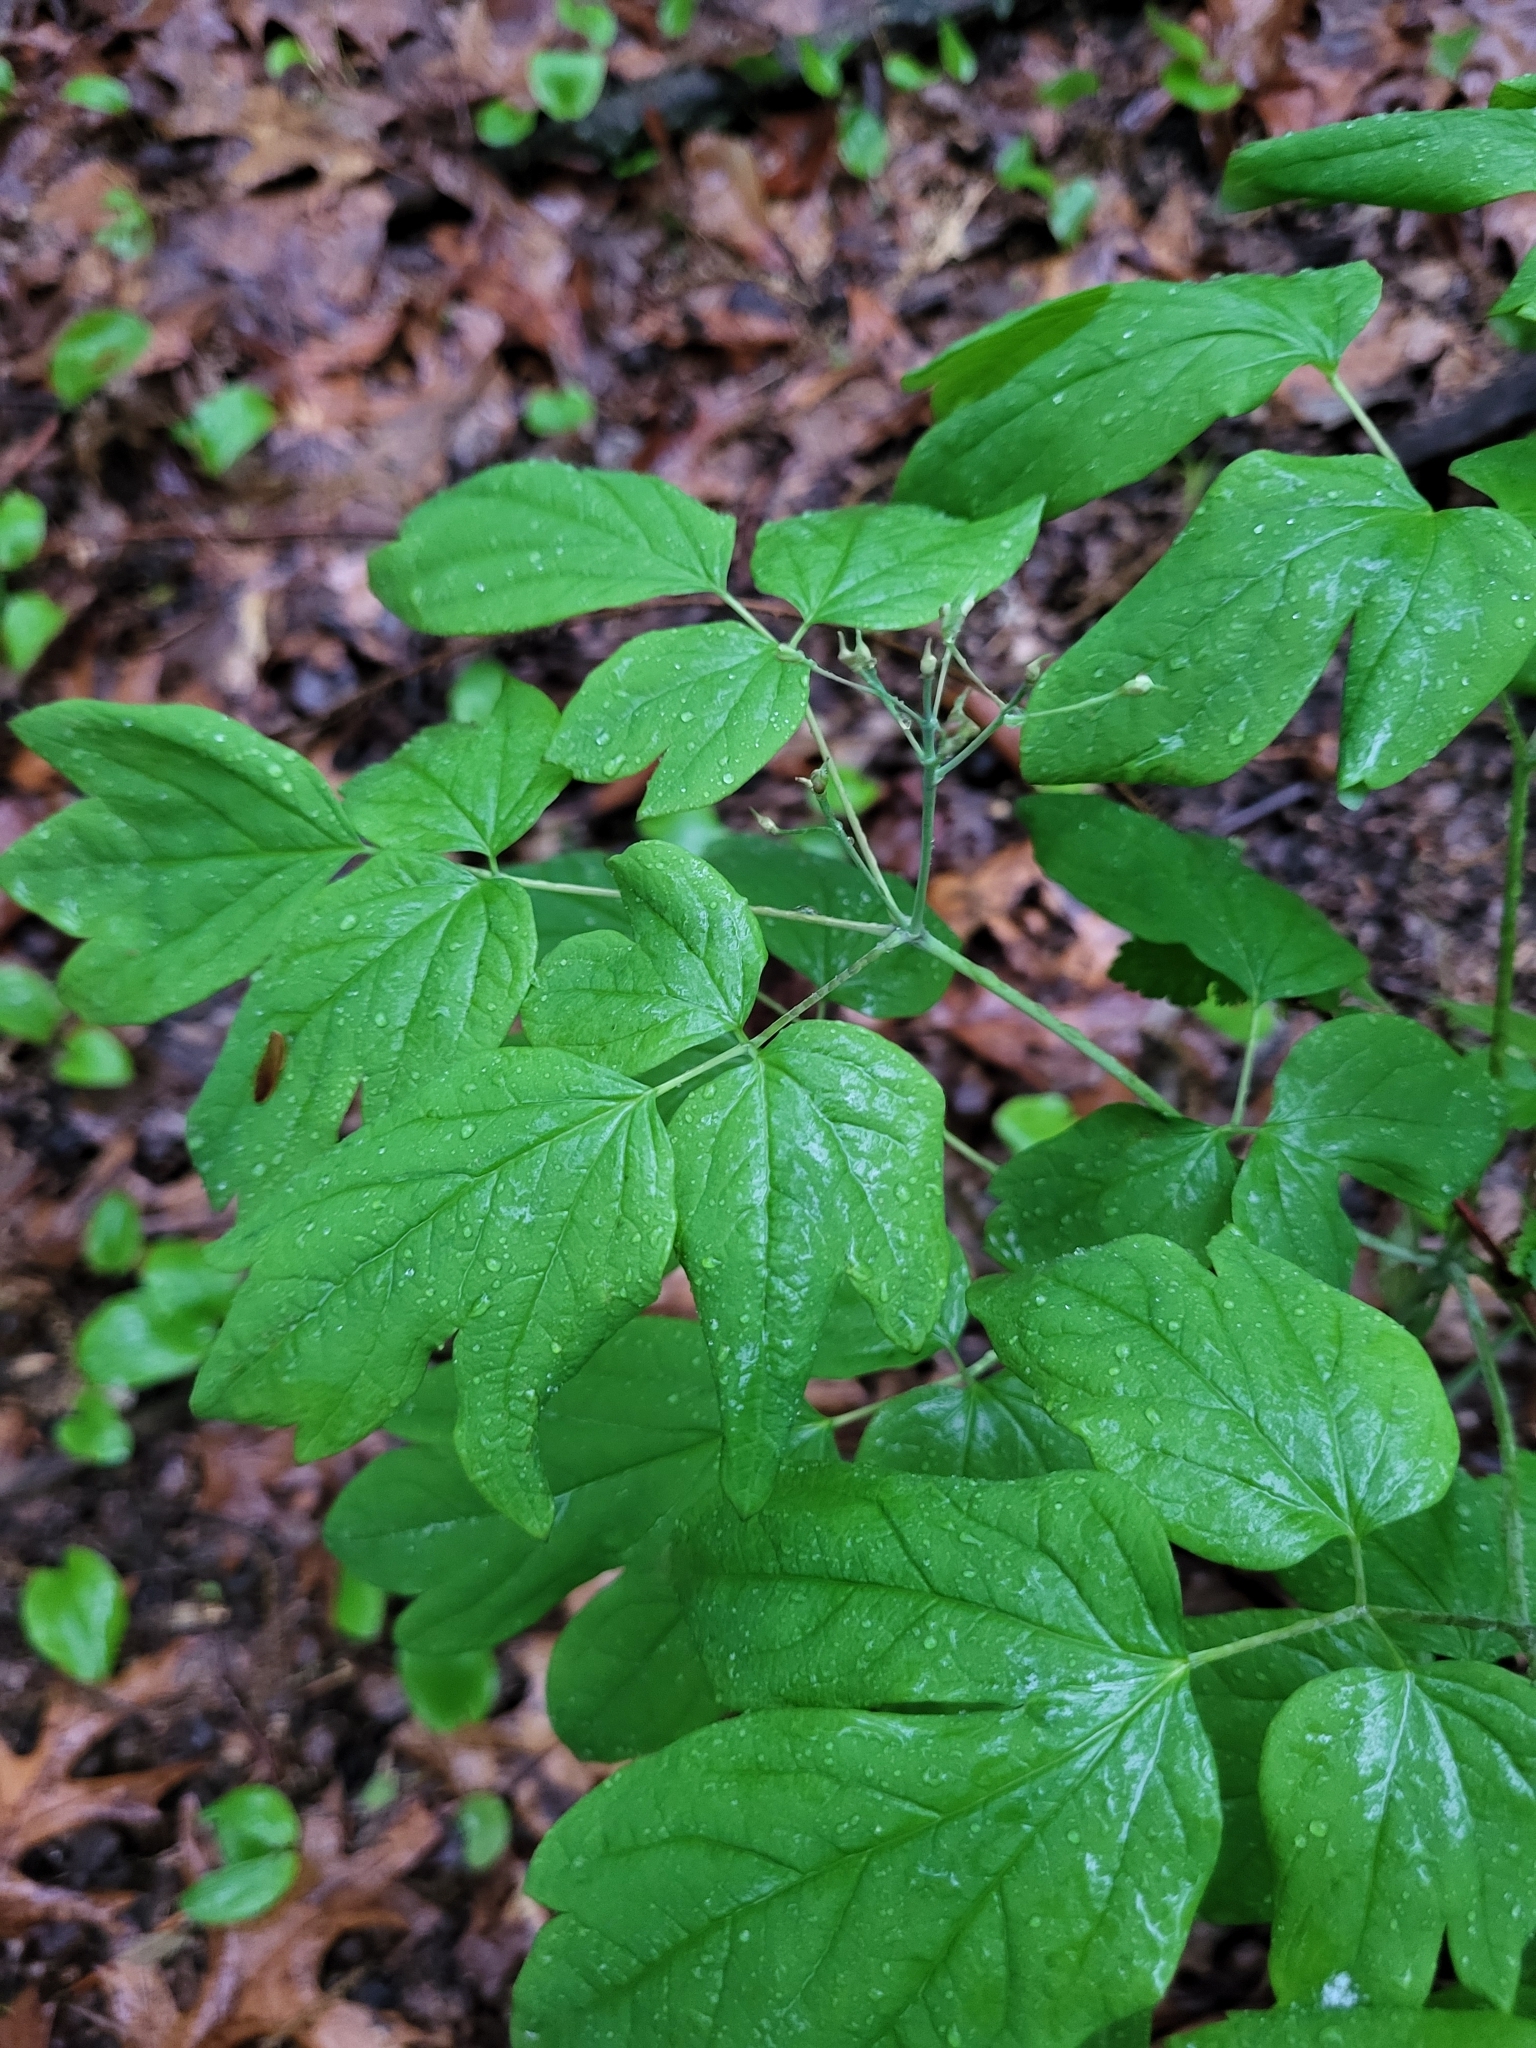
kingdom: Plantae
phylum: Tracheophyta
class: Magnoliopsida
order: Ranunculales
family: Berberidaceae
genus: Caulophyllum
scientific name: Caulophyllum giganteum
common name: Blue cohosh
